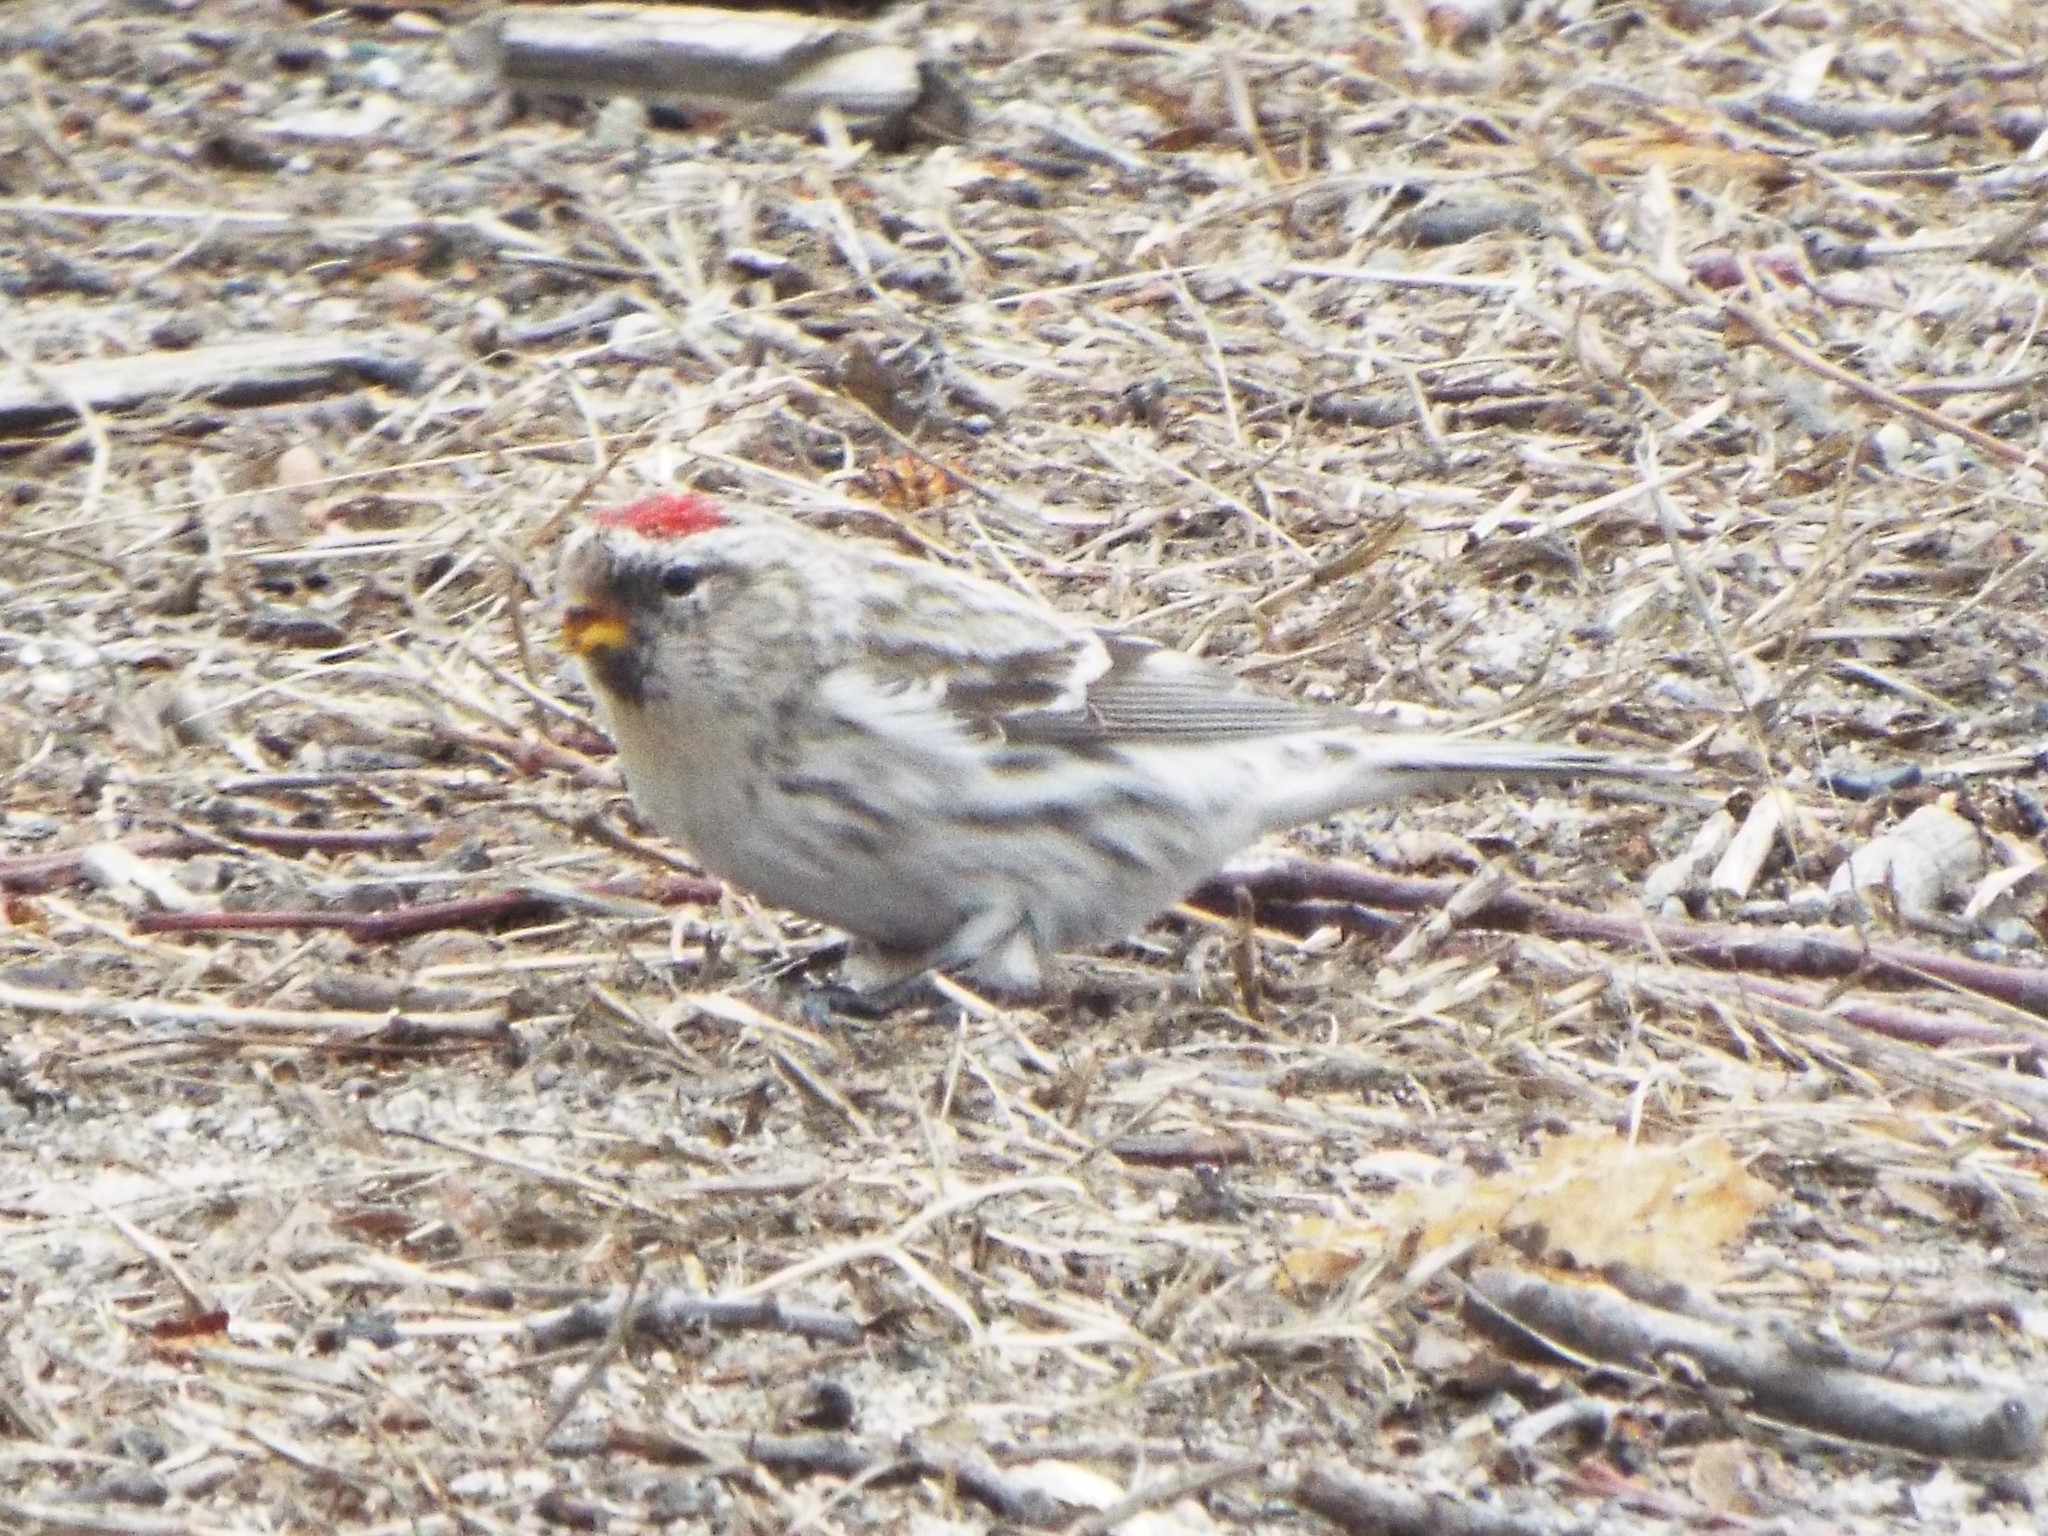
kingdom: Animalia
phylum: Chordata
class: Aves
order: Passeriformes
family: Fringillidae
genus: Acanthis
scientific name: Acanthis hornemanni
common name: Arctic redpoll
